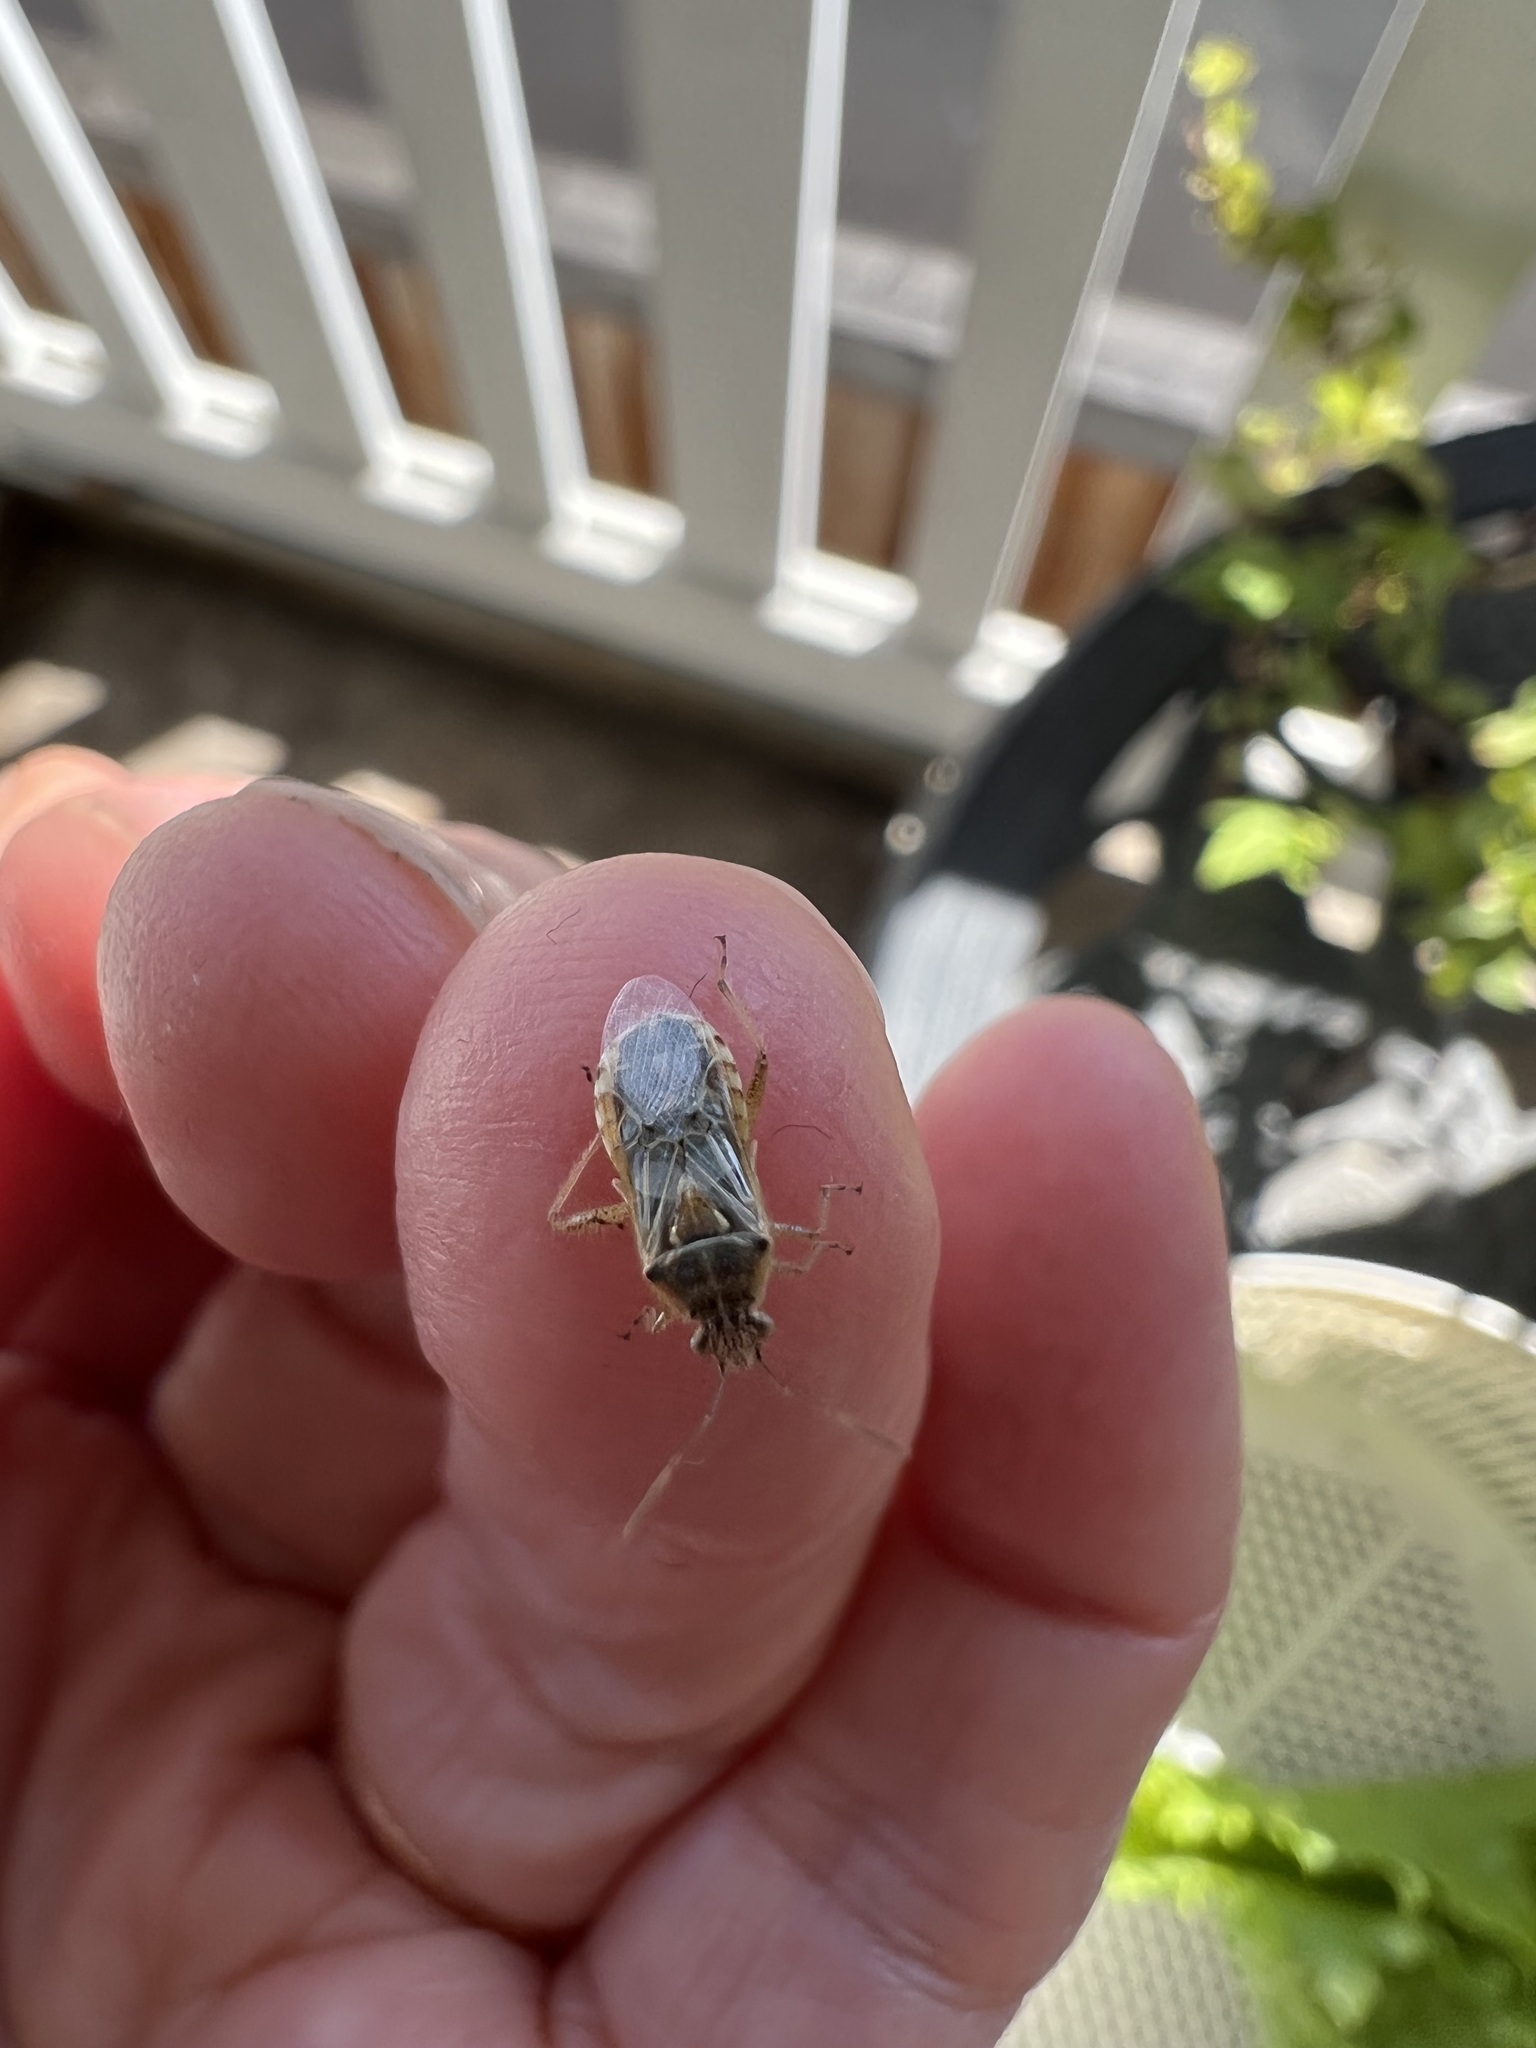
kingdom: Animalia
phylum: Arthropoda
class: Insecta
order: Hemiptera
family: Rhopalidae
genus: Liorhyssus
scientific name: Liorhyssus hyalinus
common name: Scentless plant bug
